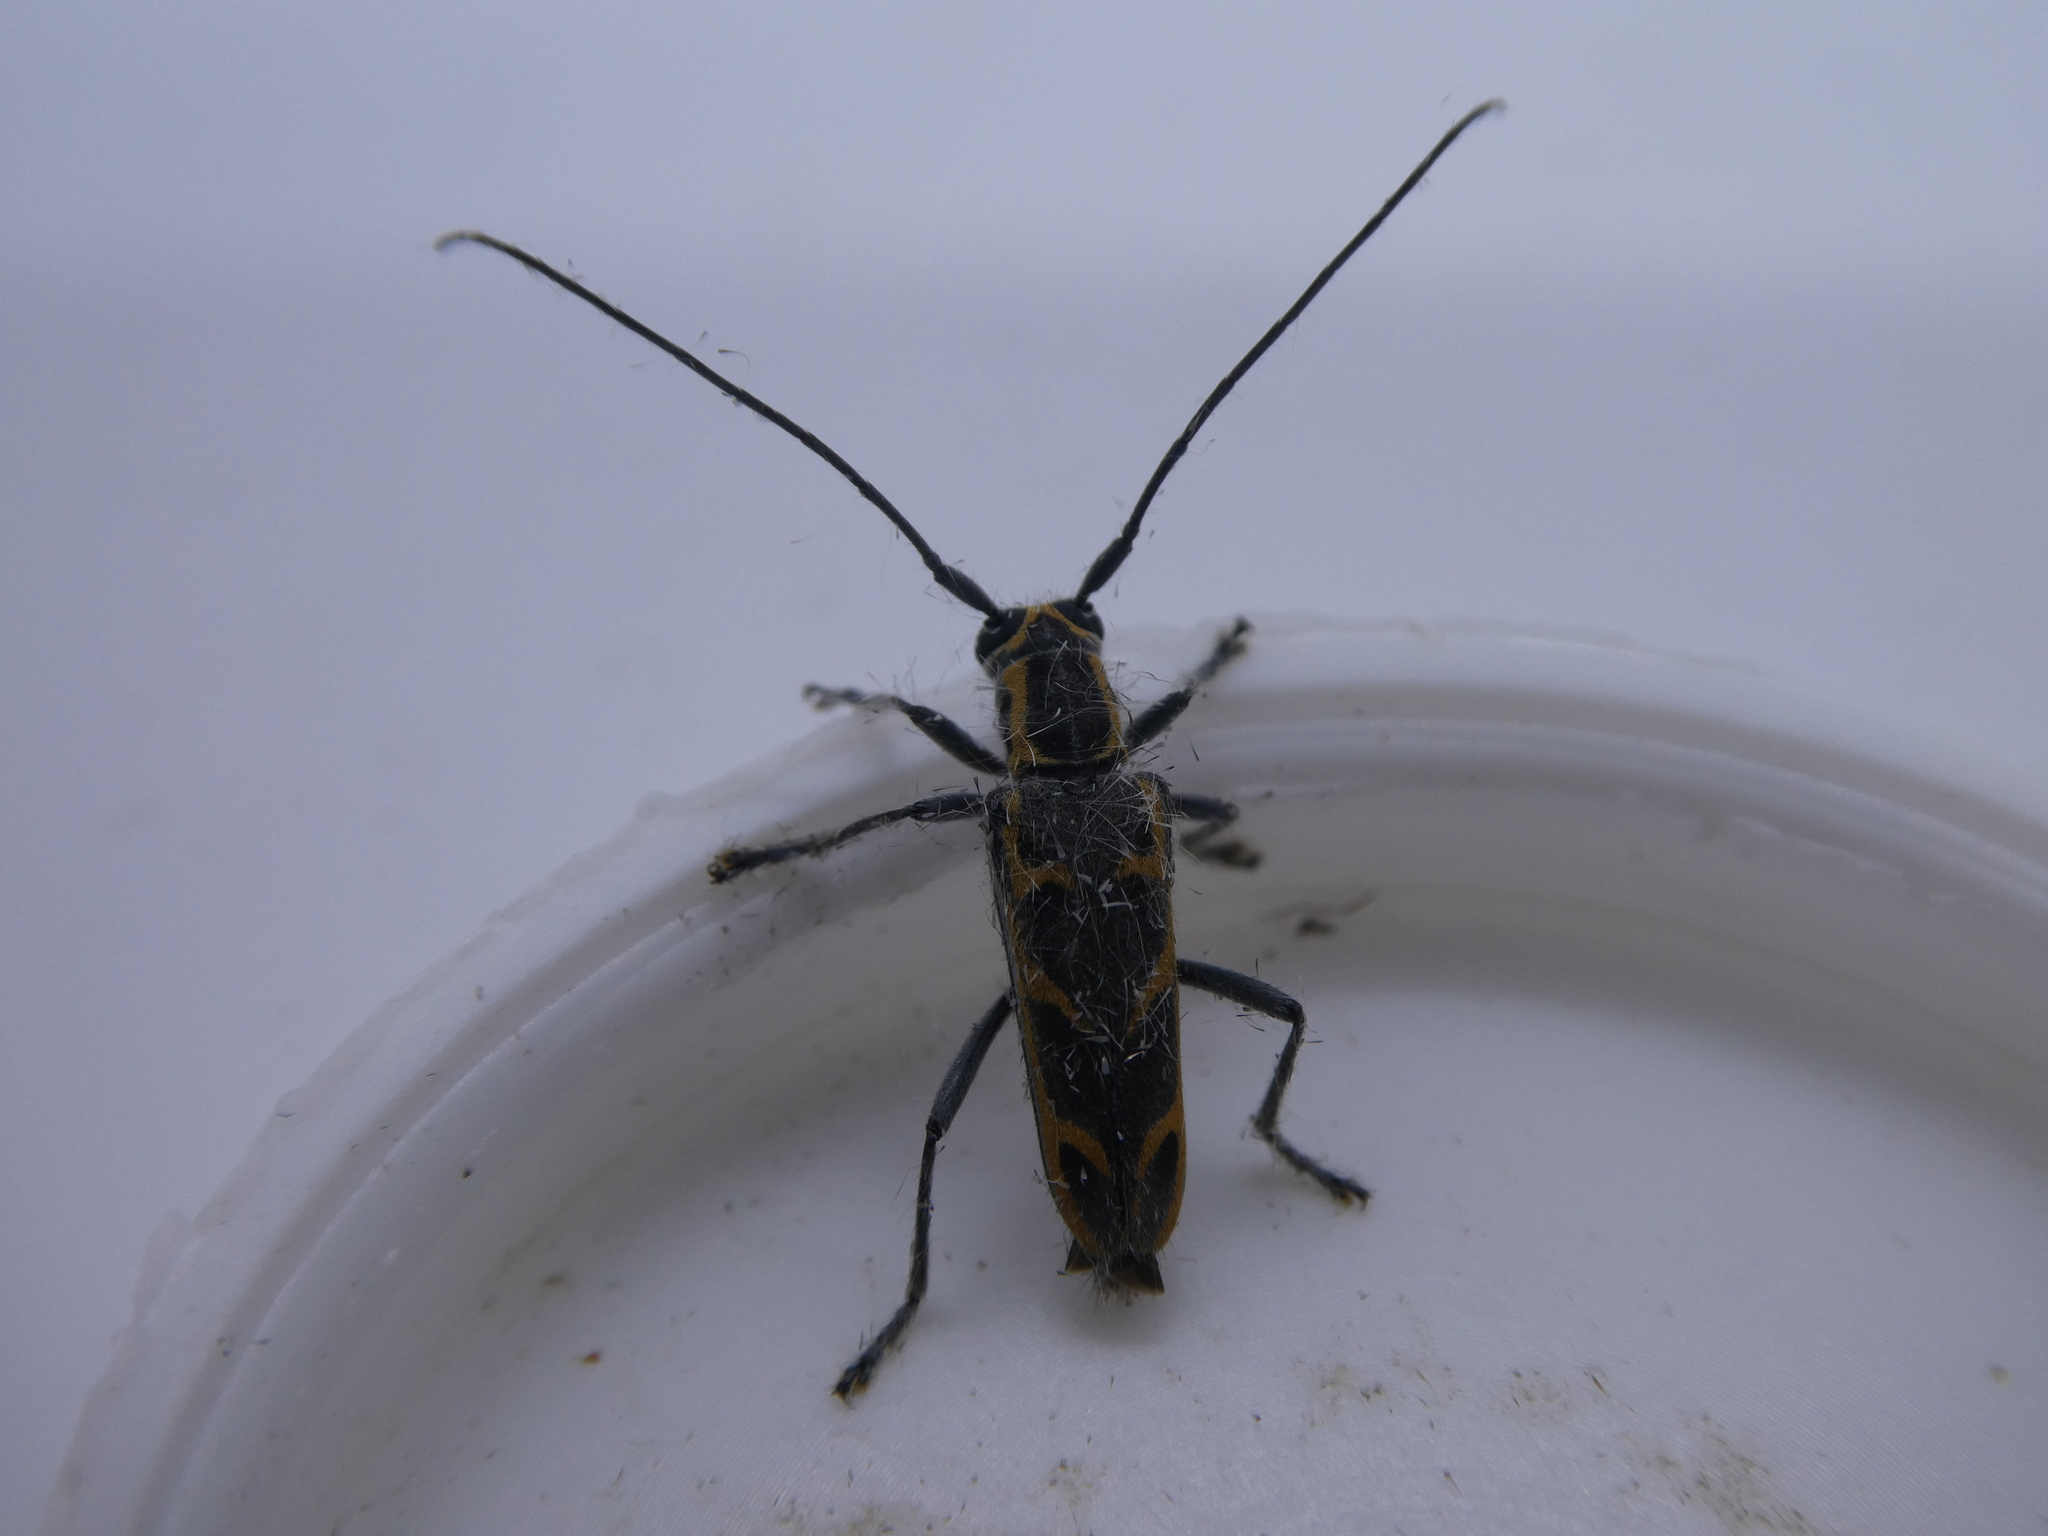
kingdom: Animalia
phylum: Arthropoda
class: Insecta
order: Coleoptera
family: Cerambycidae
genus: Saperda
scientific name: Saperda tridentata
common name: Elm borer
